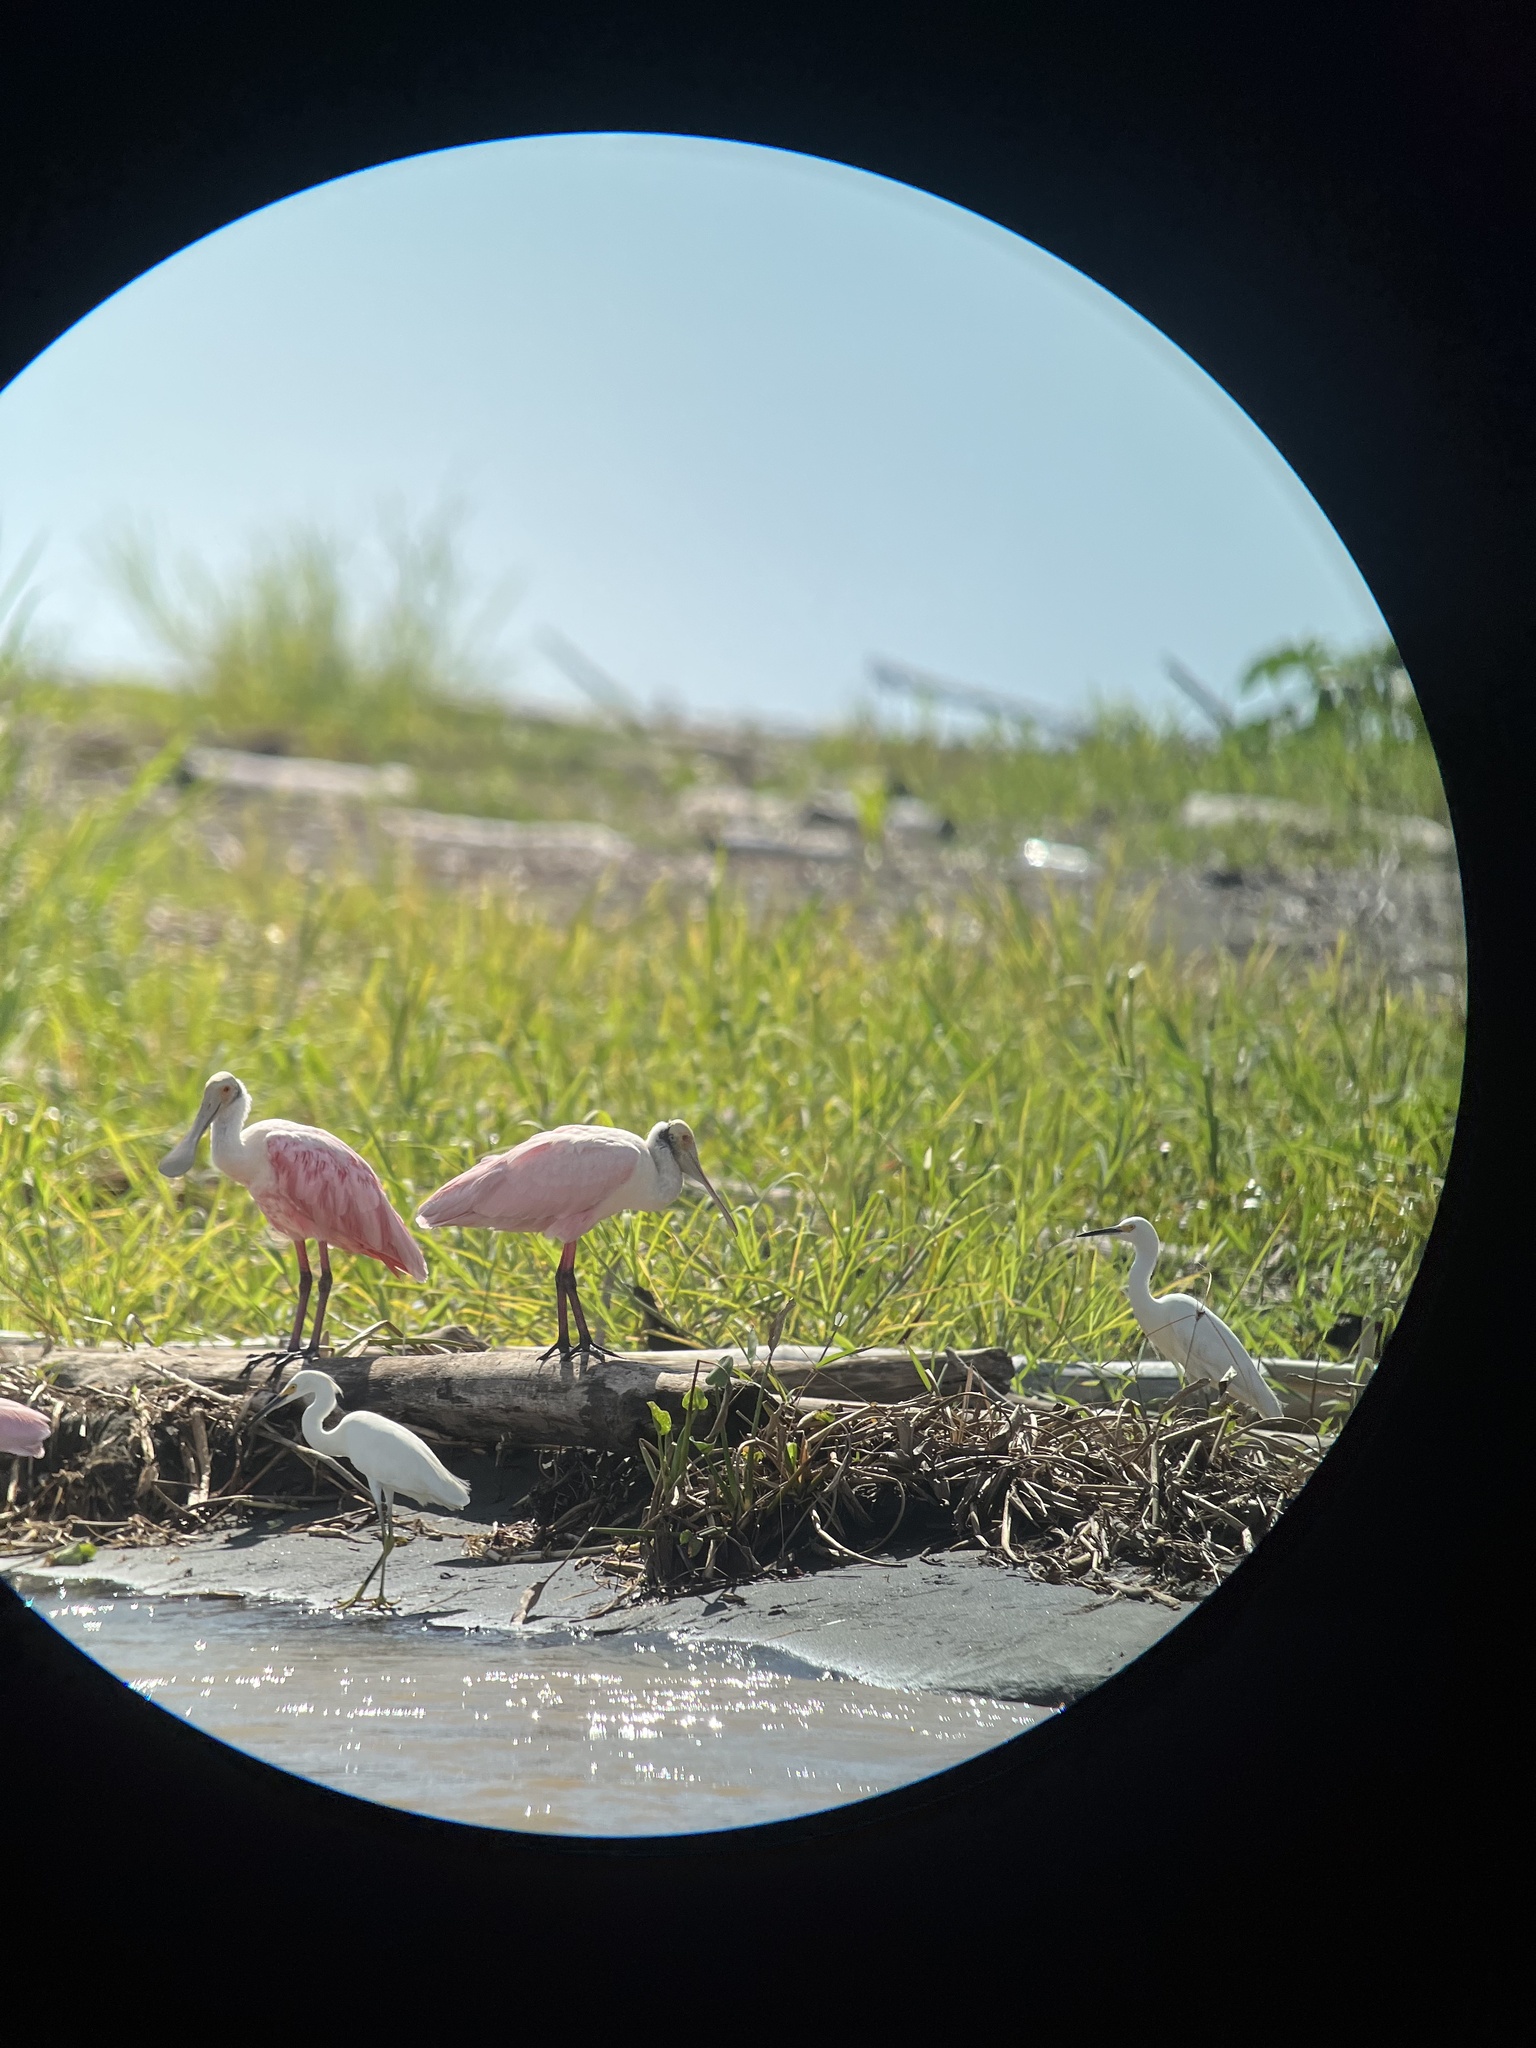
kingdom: Animalia
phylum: Chordata
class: Aves
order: Pelecaniformes
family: Threskiornithidae
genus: Platalea
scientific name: Platalea ajaja
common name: Roseate spoonbill
